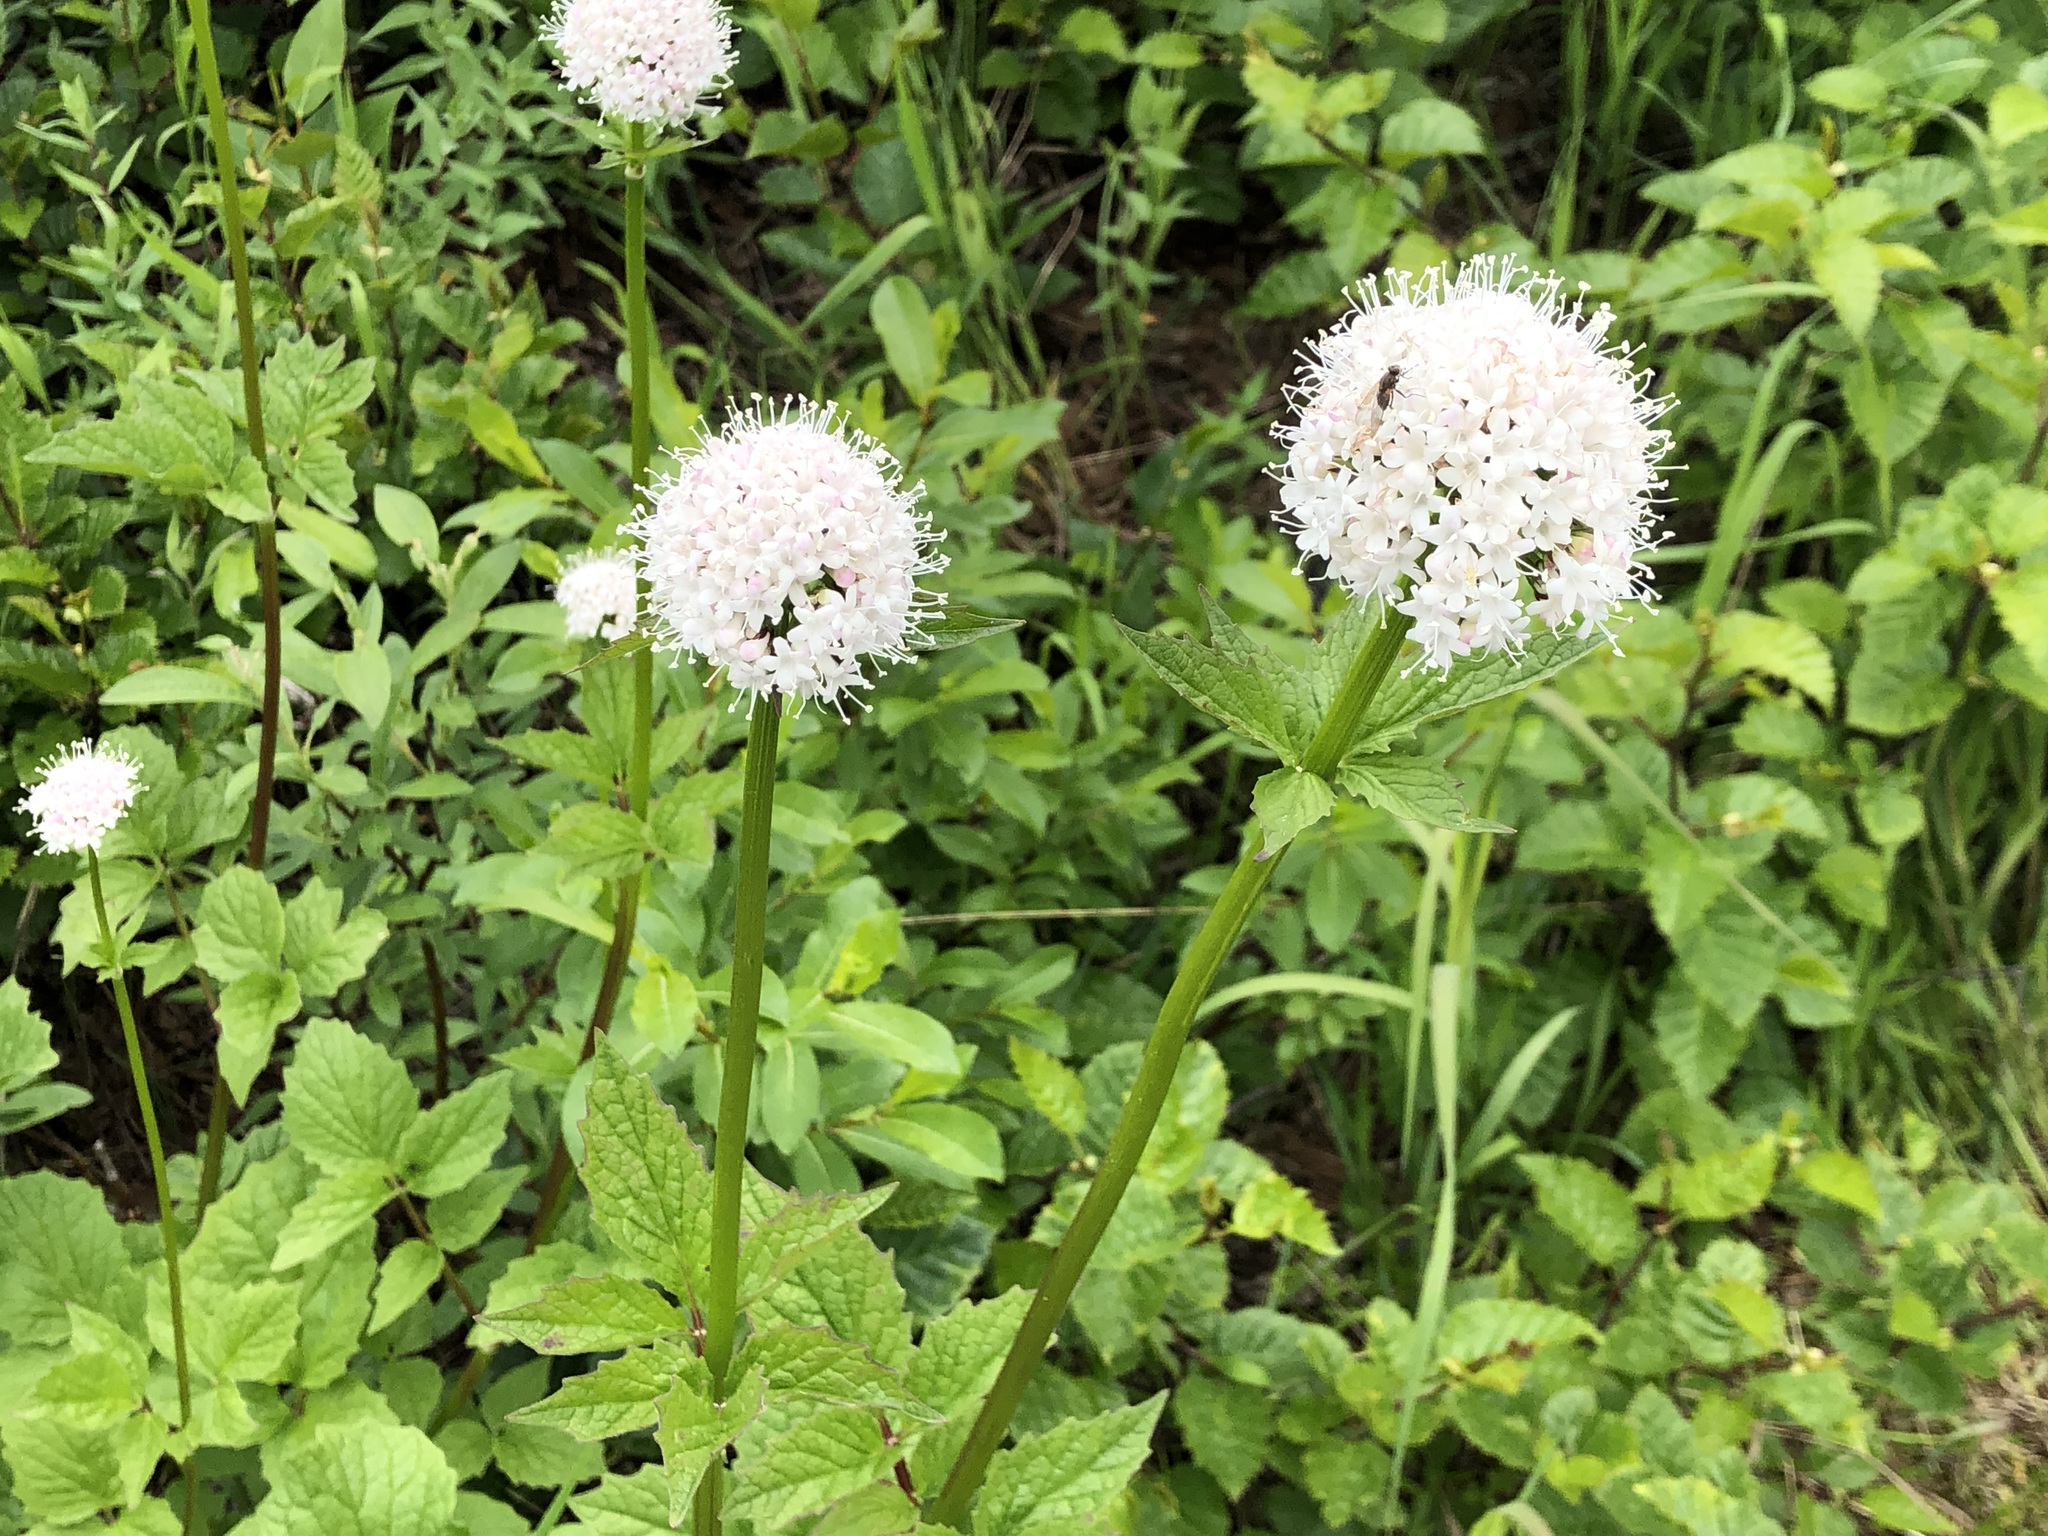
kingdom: Plantae
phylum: Tracheophyta
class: Magnoliopsida
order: Dipsacales
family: Caprifoliaceae
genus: Valeriana
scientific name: Valeriana sitchensis
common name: Pacific valerian
